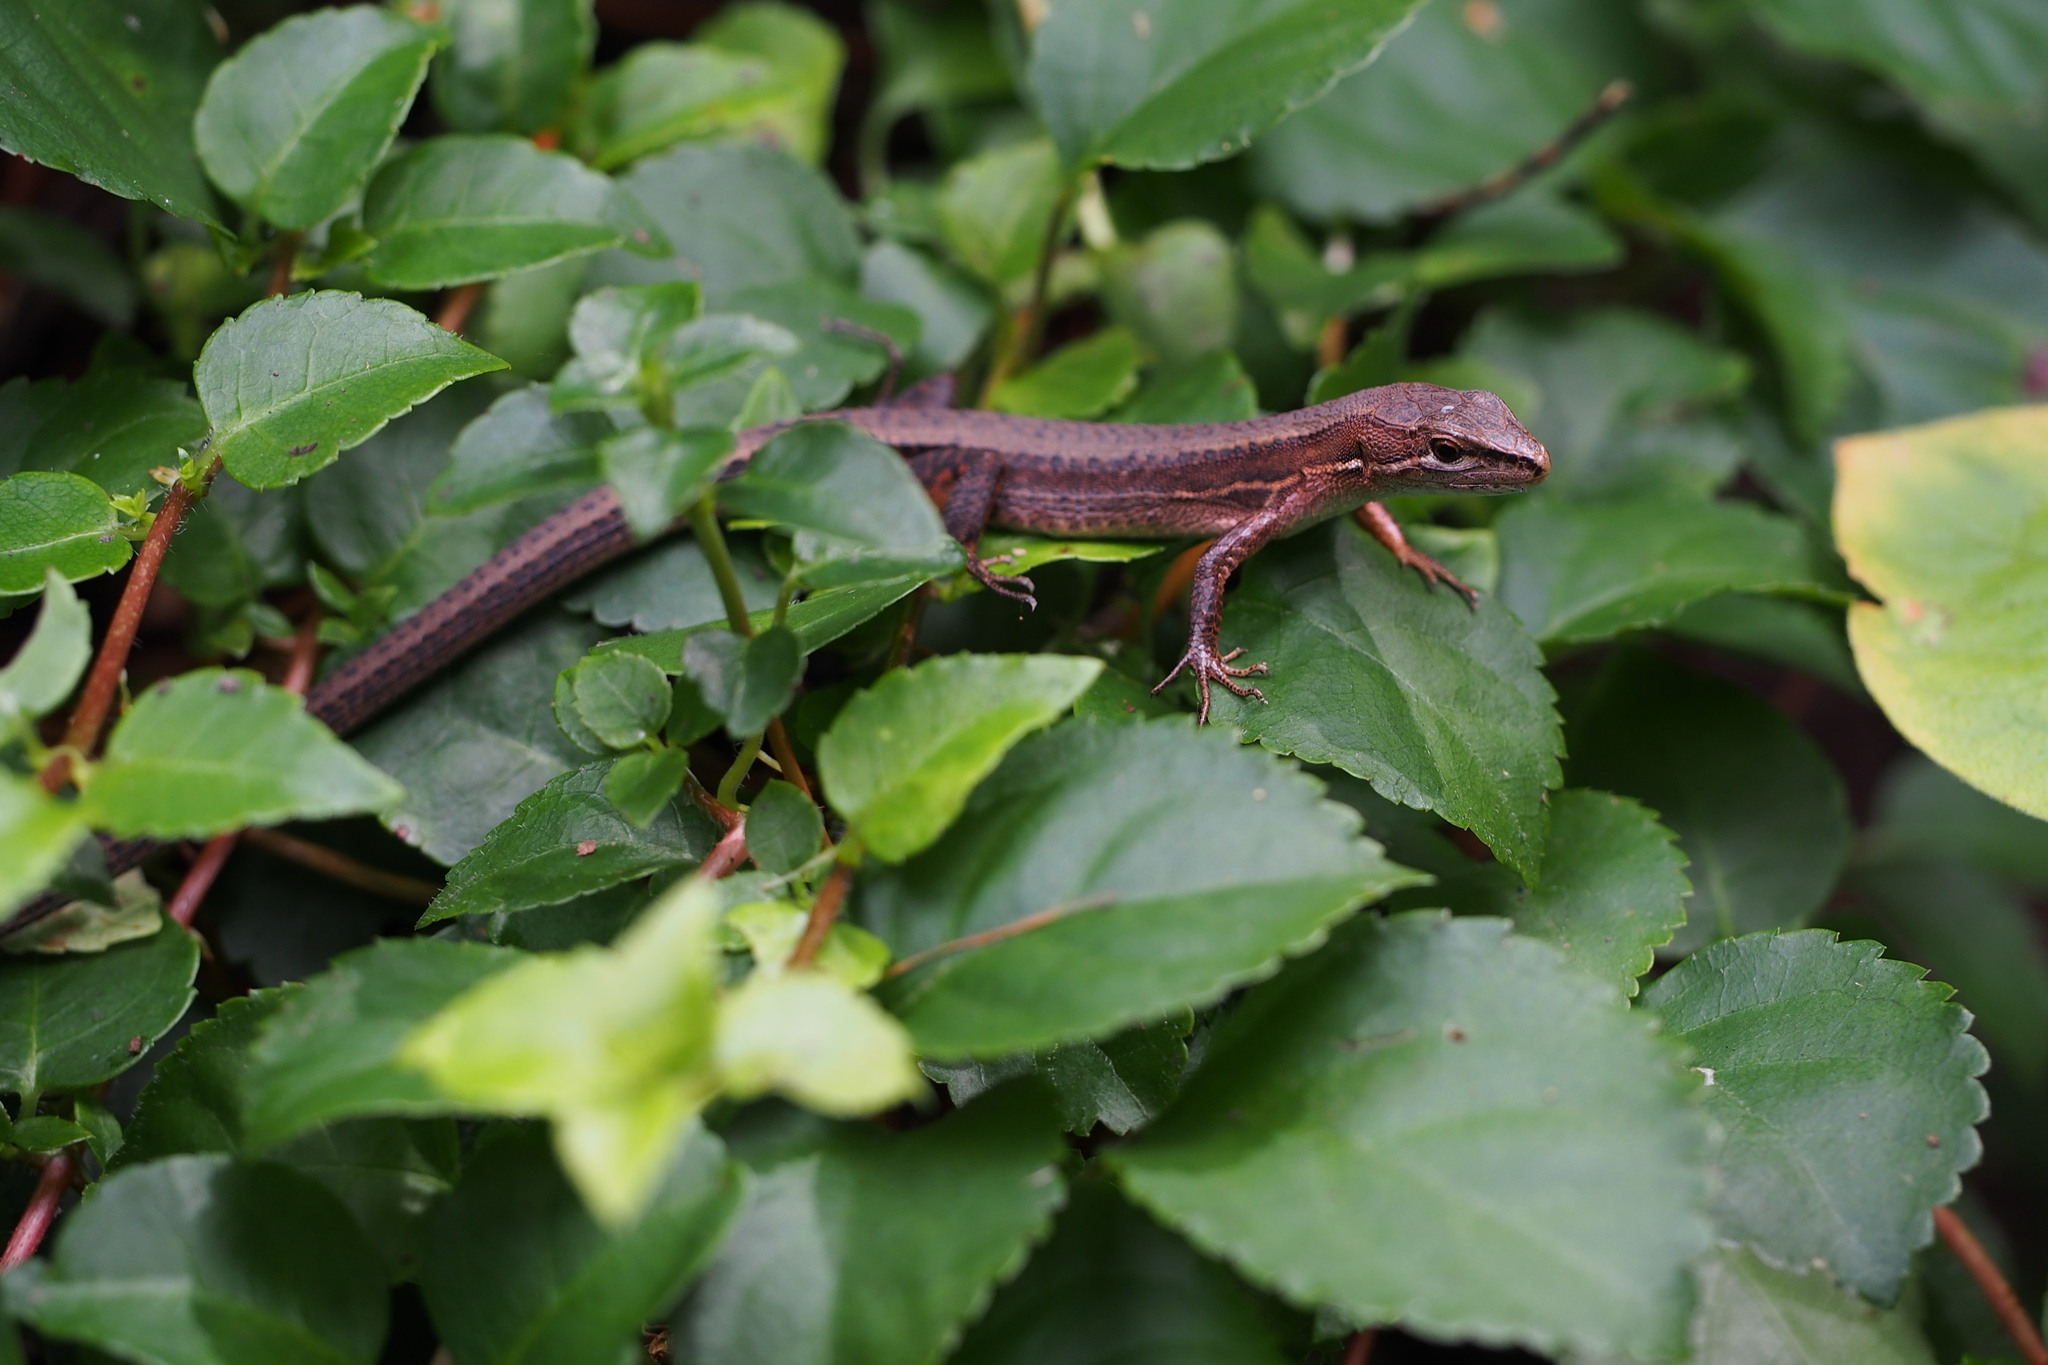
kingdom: Animalia
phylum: Chordata
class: Squamata
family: Lacertidae
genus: Takydromus
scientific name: Takydromus tachydromoides
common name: Japanese grass lizard
